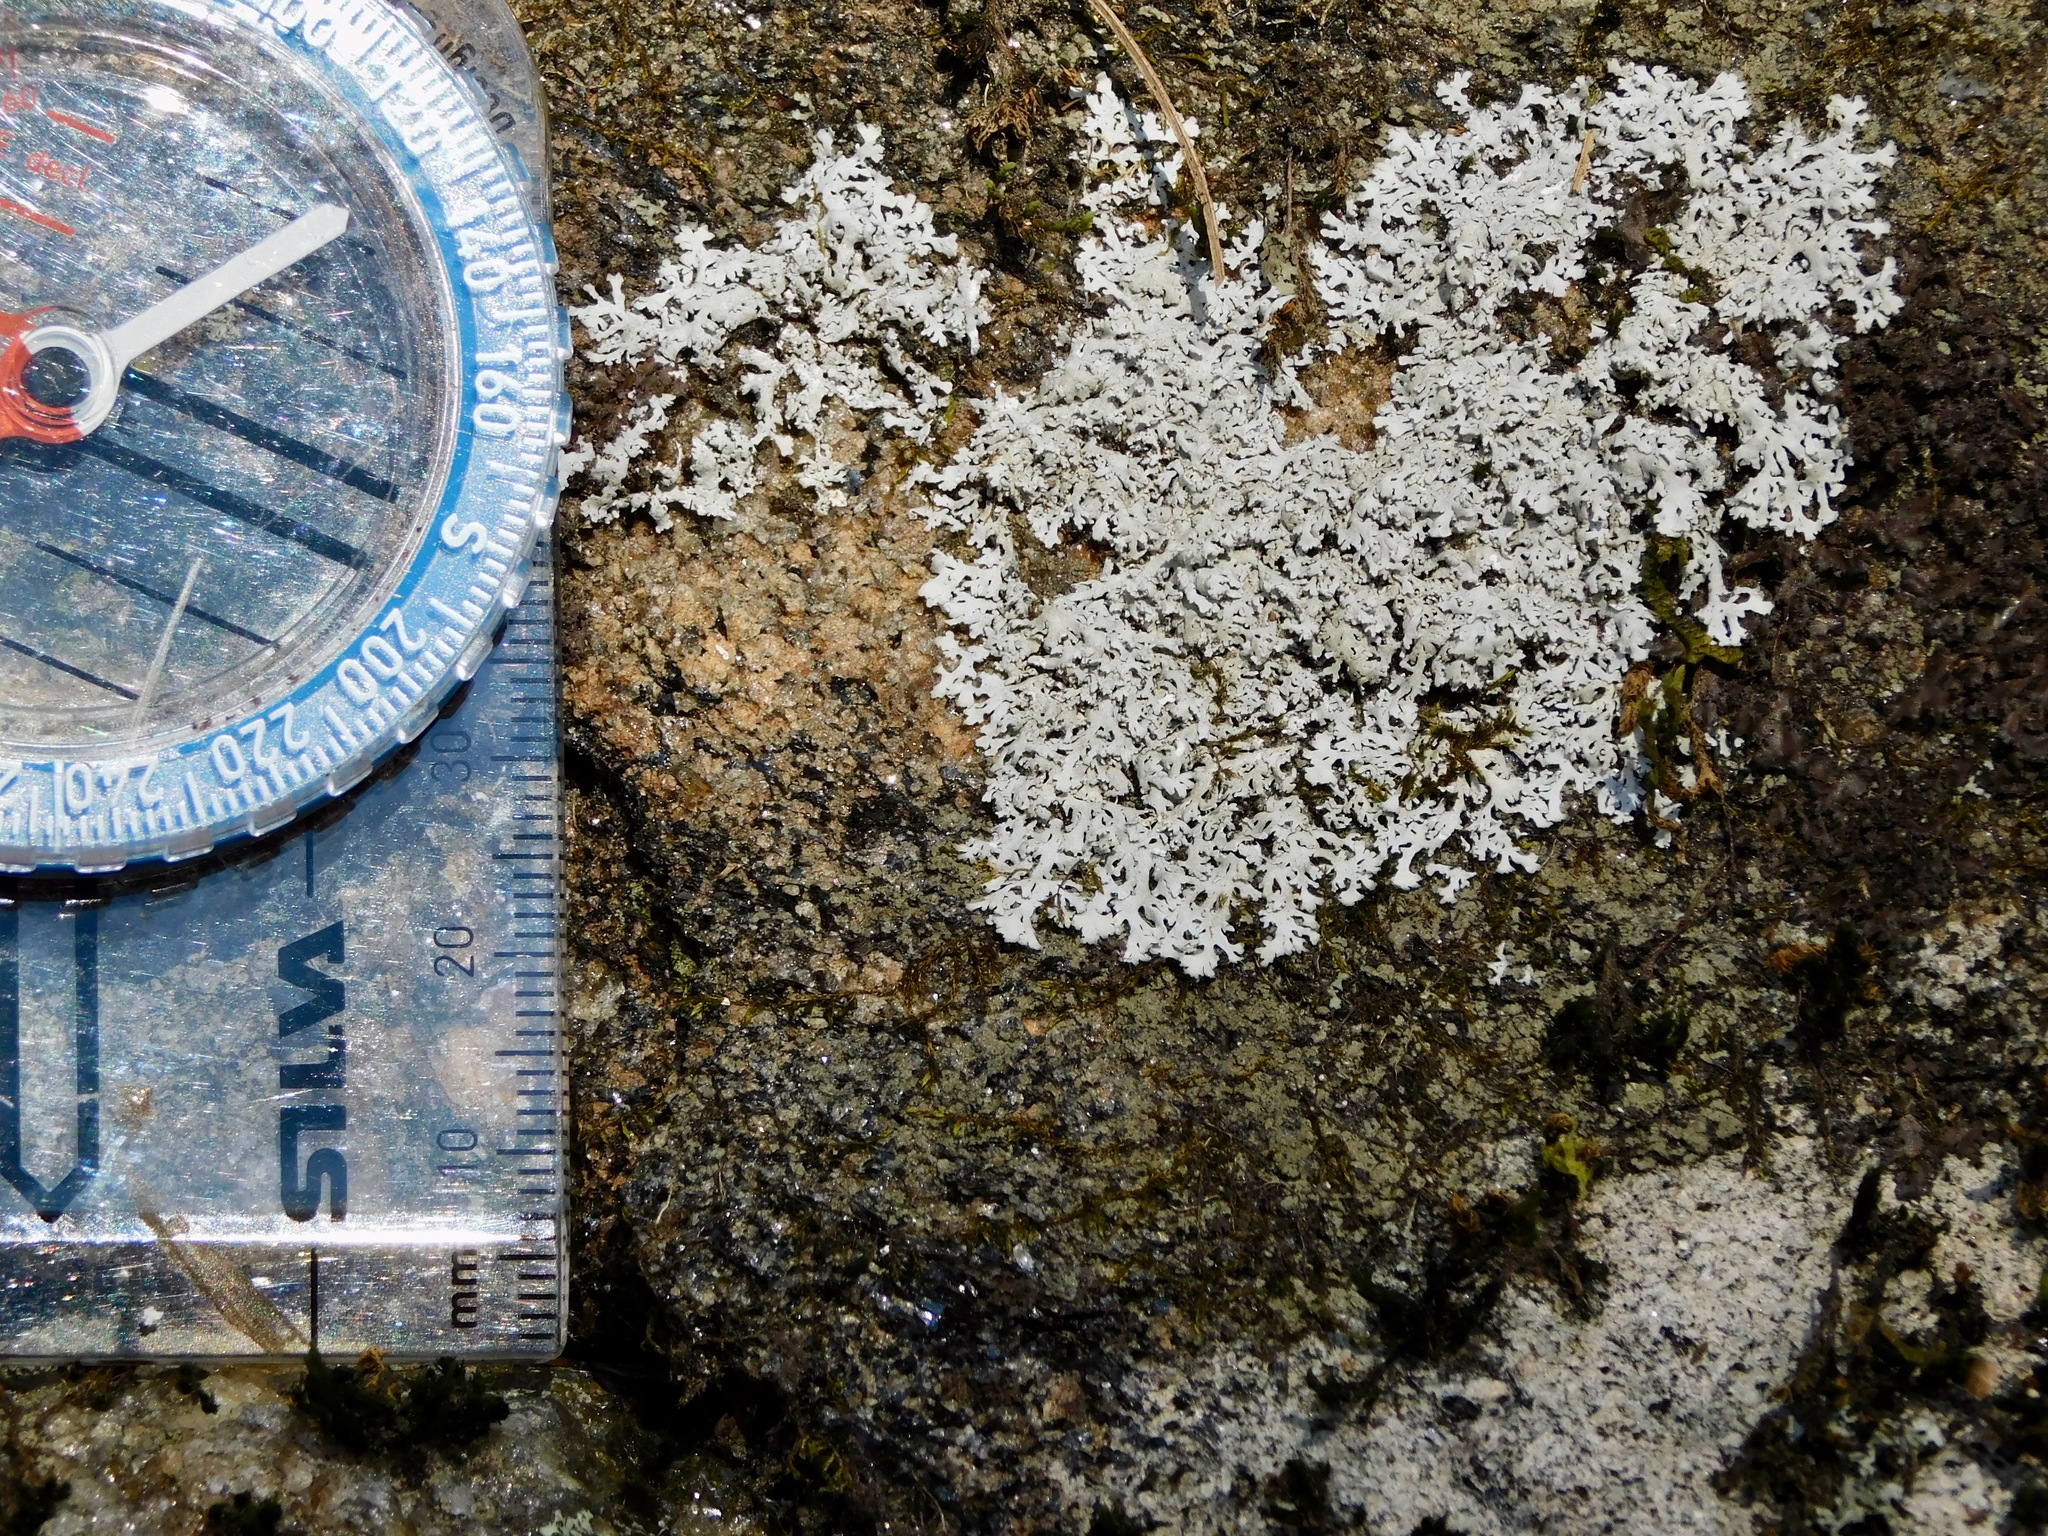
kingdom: Fungi
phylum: Ascomycota
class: Lecanoromycetes
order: Caliciales
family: Physciaceae
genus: Physcia
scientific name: Physcia thomsoniana
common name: Thomson's rosette lichen
